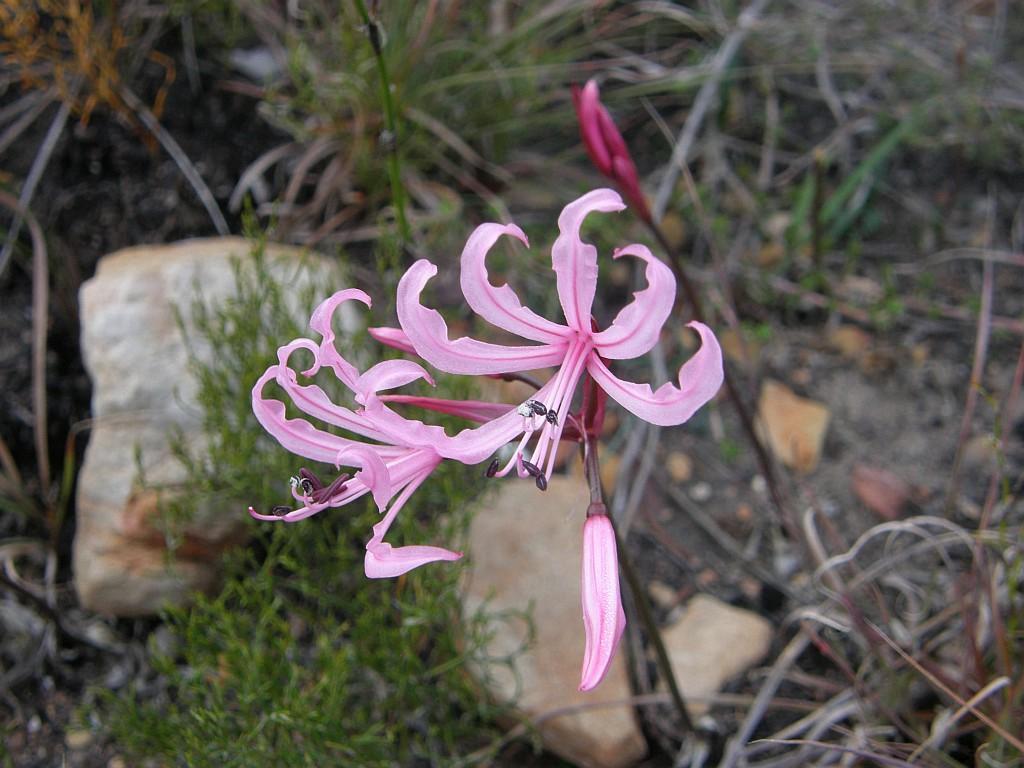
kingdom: Plantae
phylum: Tracheophyta
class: Liliopsida
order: Asparagales
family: Amaryllidaceae
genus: Nerine
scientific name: Nerine humilis
